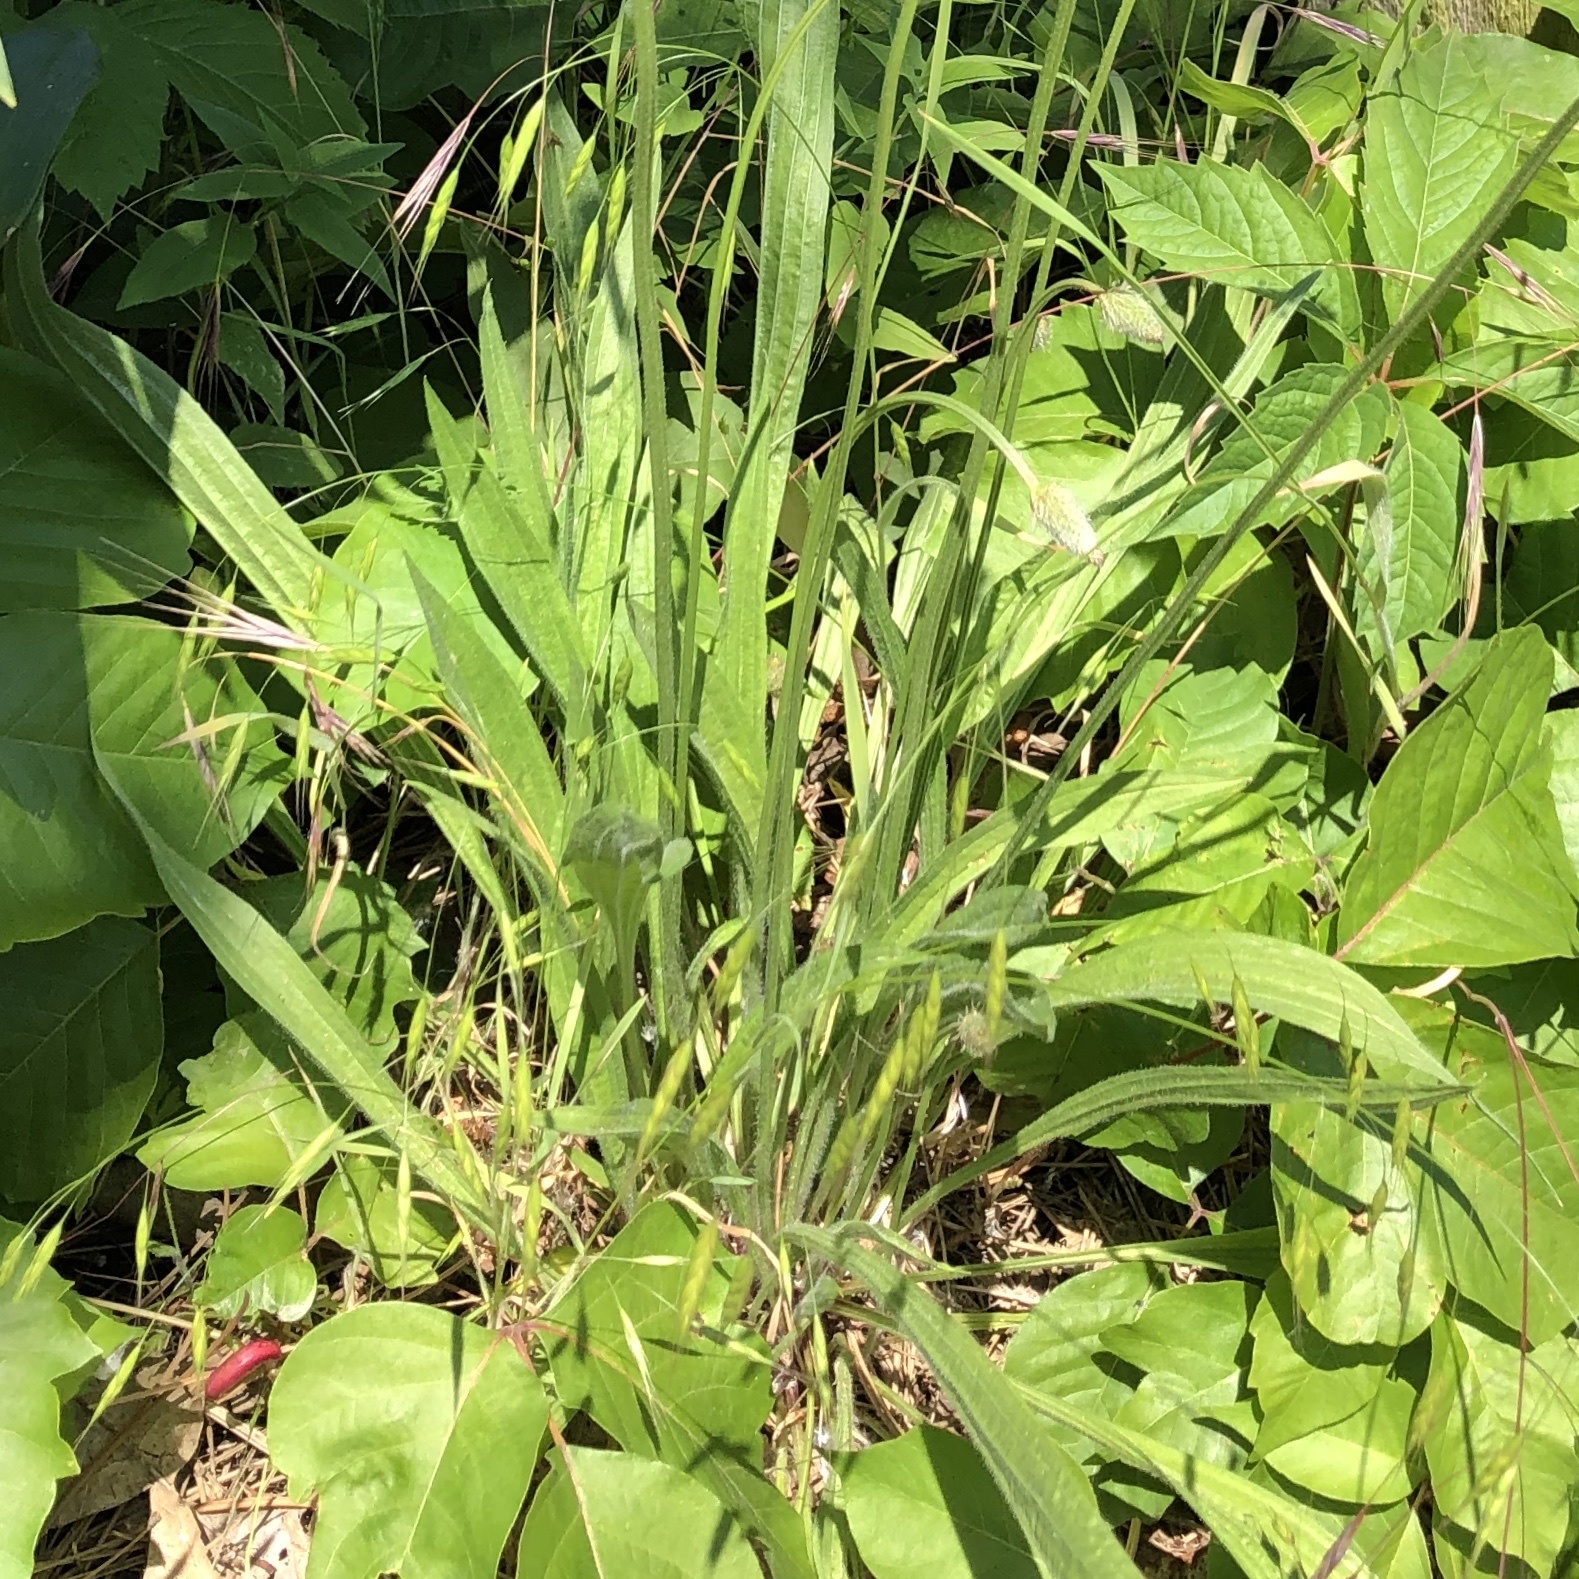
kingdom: Plantae
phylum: Tracheophyta
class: Magnoliopsida
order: Lamiales
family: Plantaginaceae
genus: Plantago
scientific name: Plantago lanceolata
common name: Ribwort plantain
